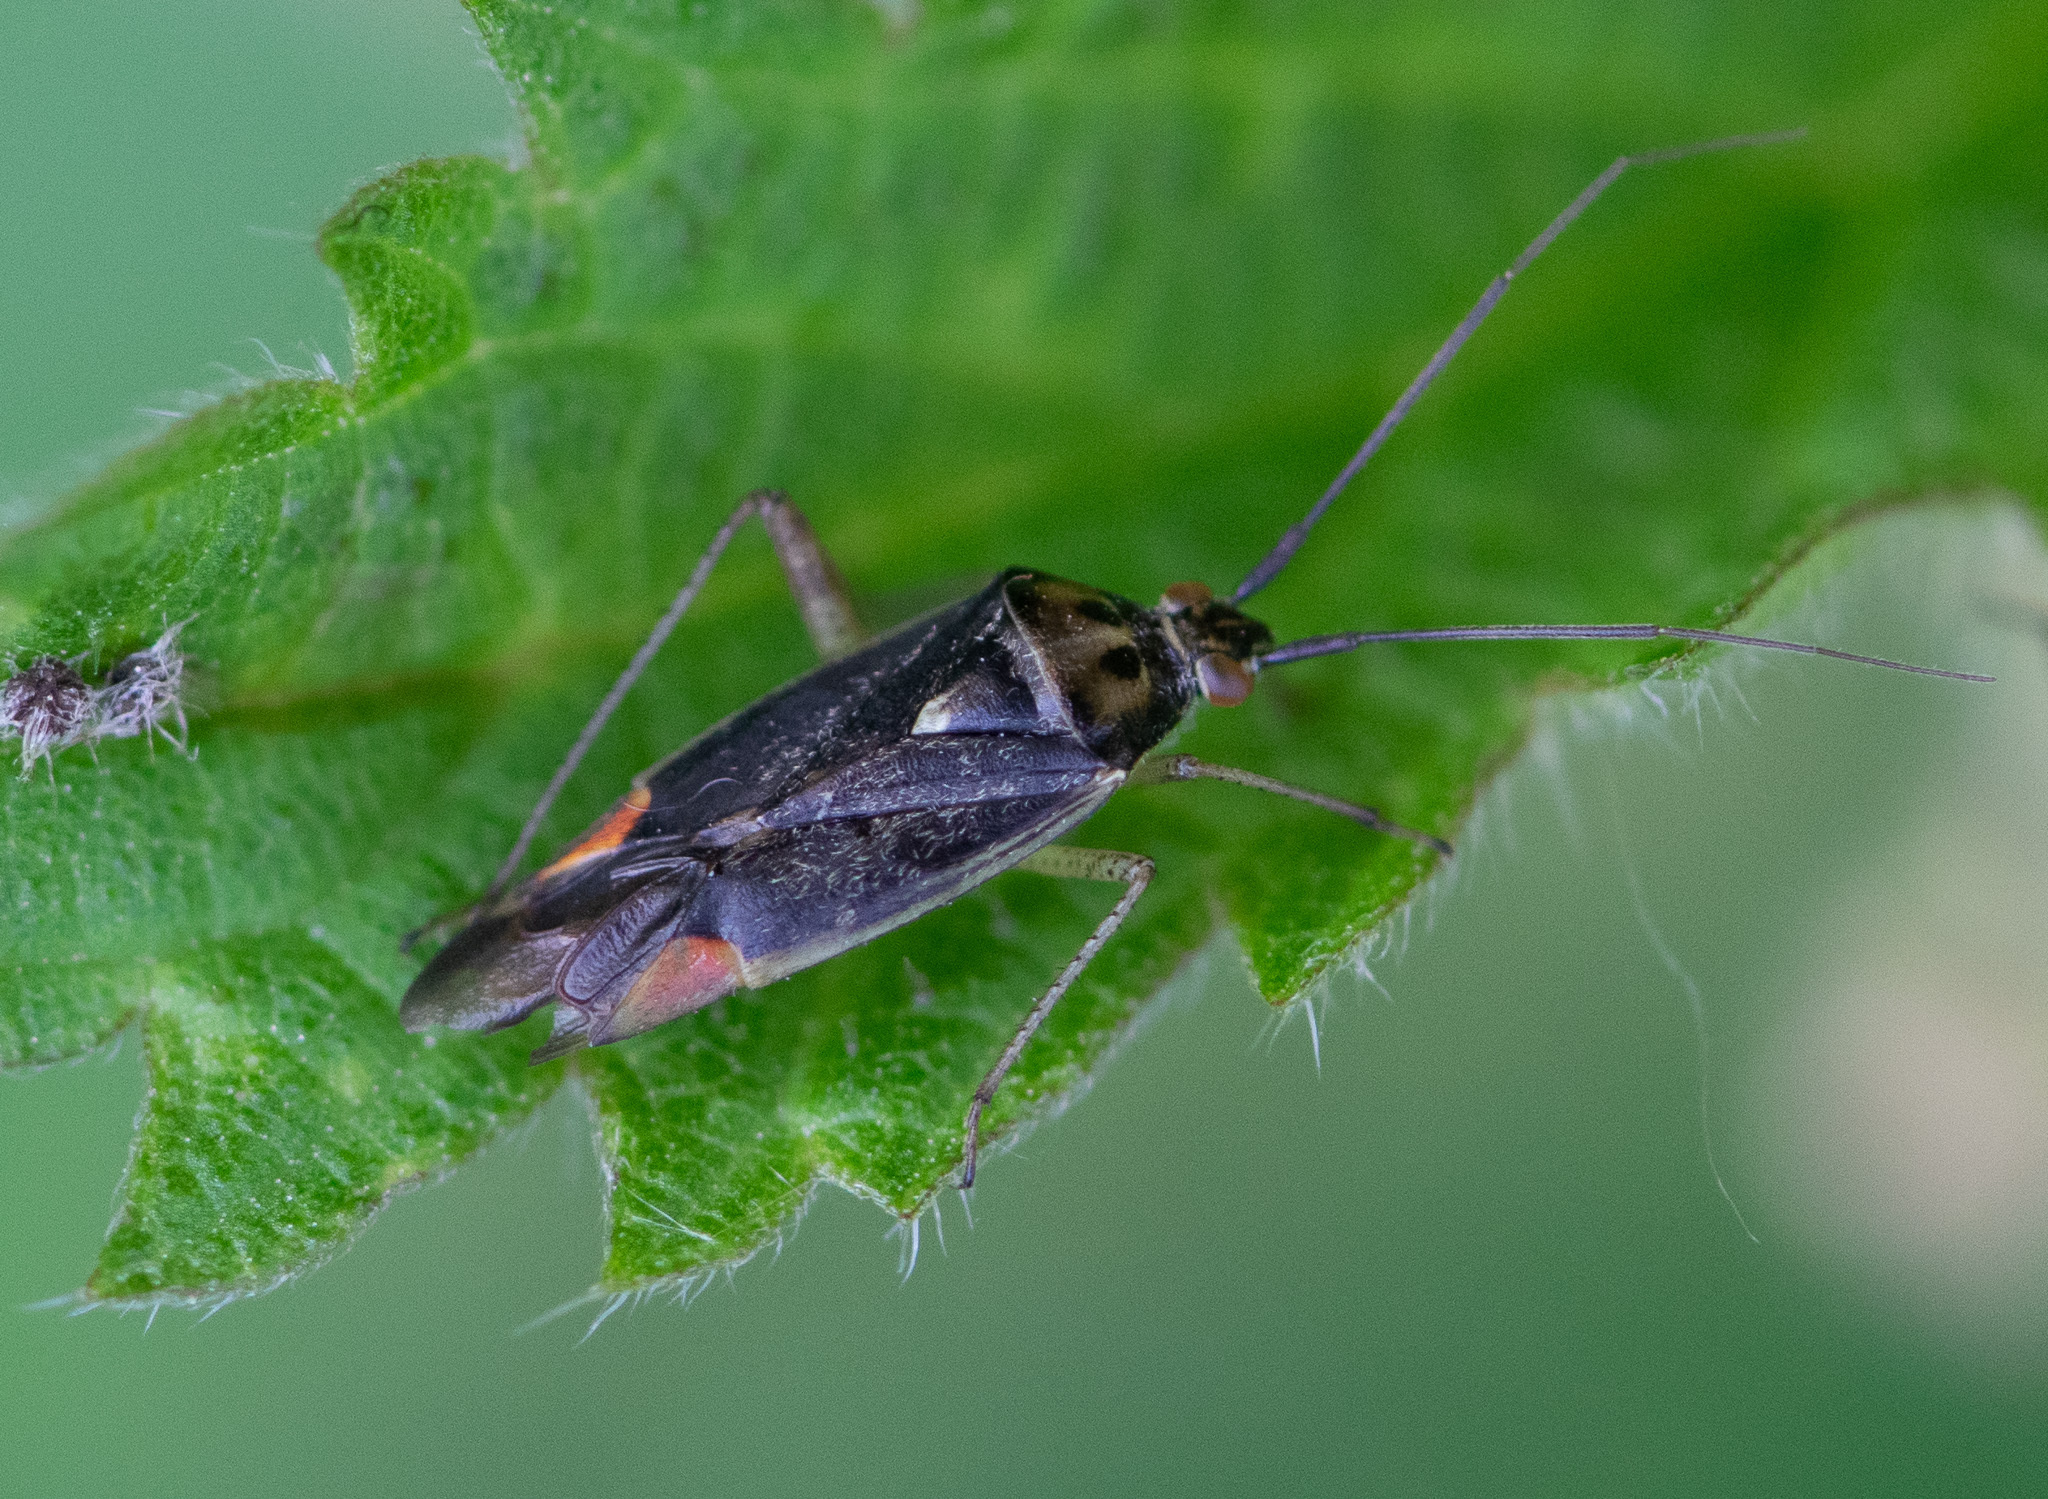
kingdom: Animalia
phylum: Arthropoda
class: Insecta
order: Hemiptera
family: Miridae
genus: Closterotomus
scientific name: Closterotomus trivialis
